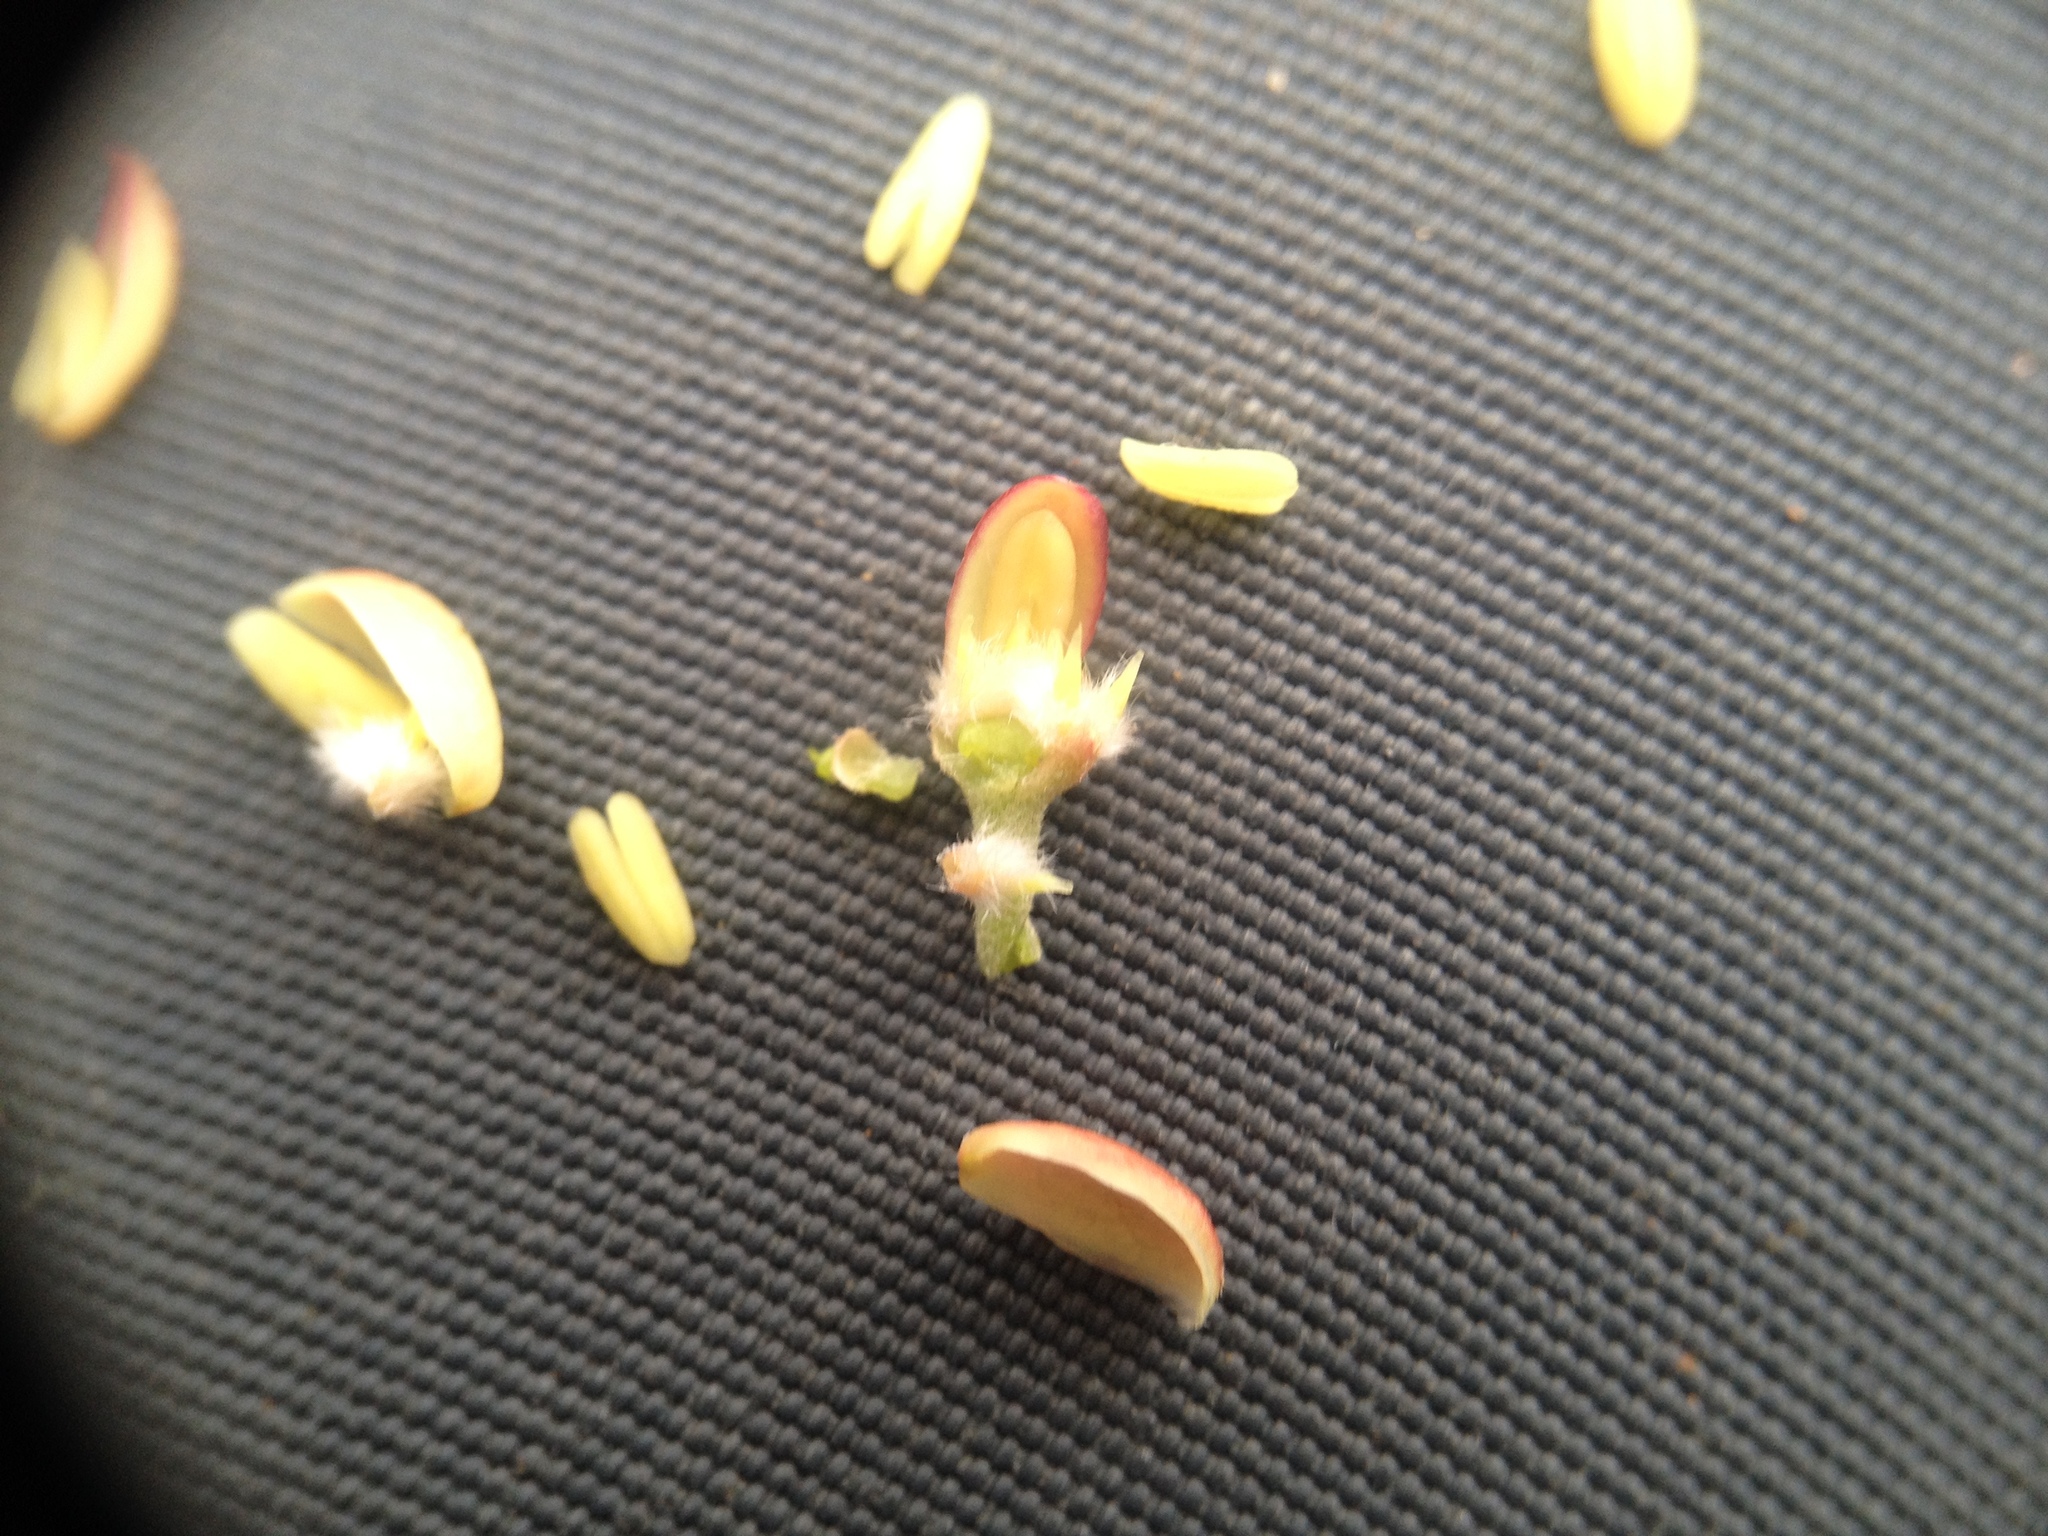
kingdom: Plantae
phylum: Tracheophyta
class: Magnoliopsida
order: Sapindales
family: Simaroubaceae
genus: Castela
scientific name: Castela coccinea
